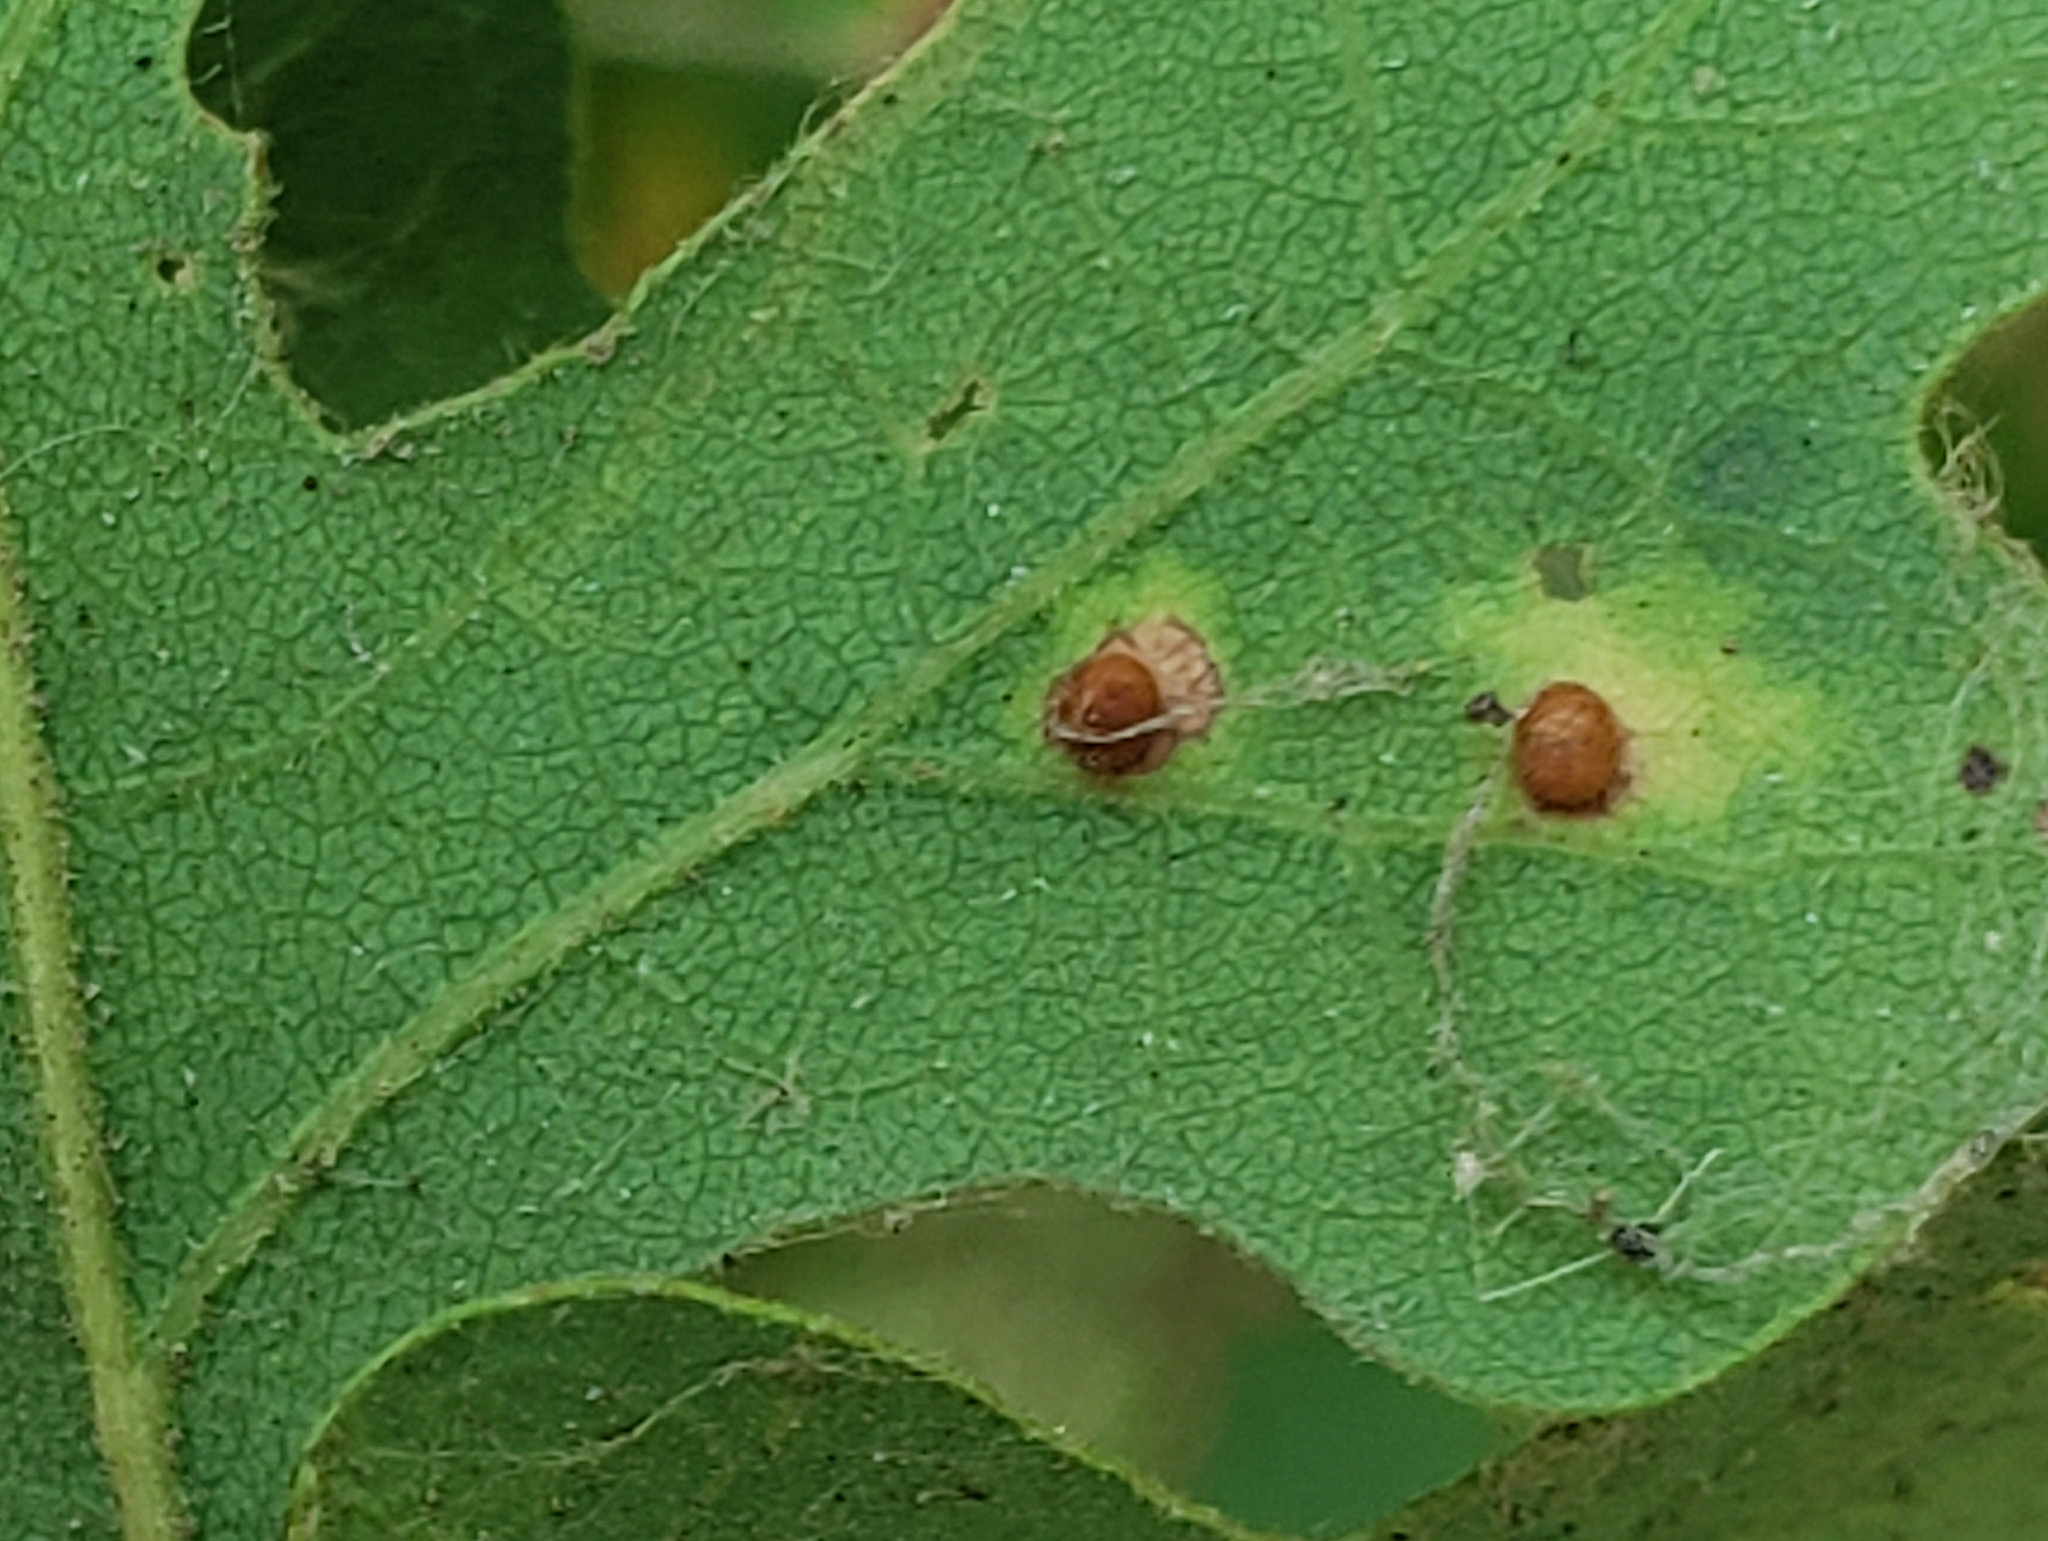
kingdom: Animalia
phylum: Arthropoda
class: Insecta
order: Hymenoptera
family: Cynipidae
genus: Neuroterus
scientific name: Neuroterus saltarius
